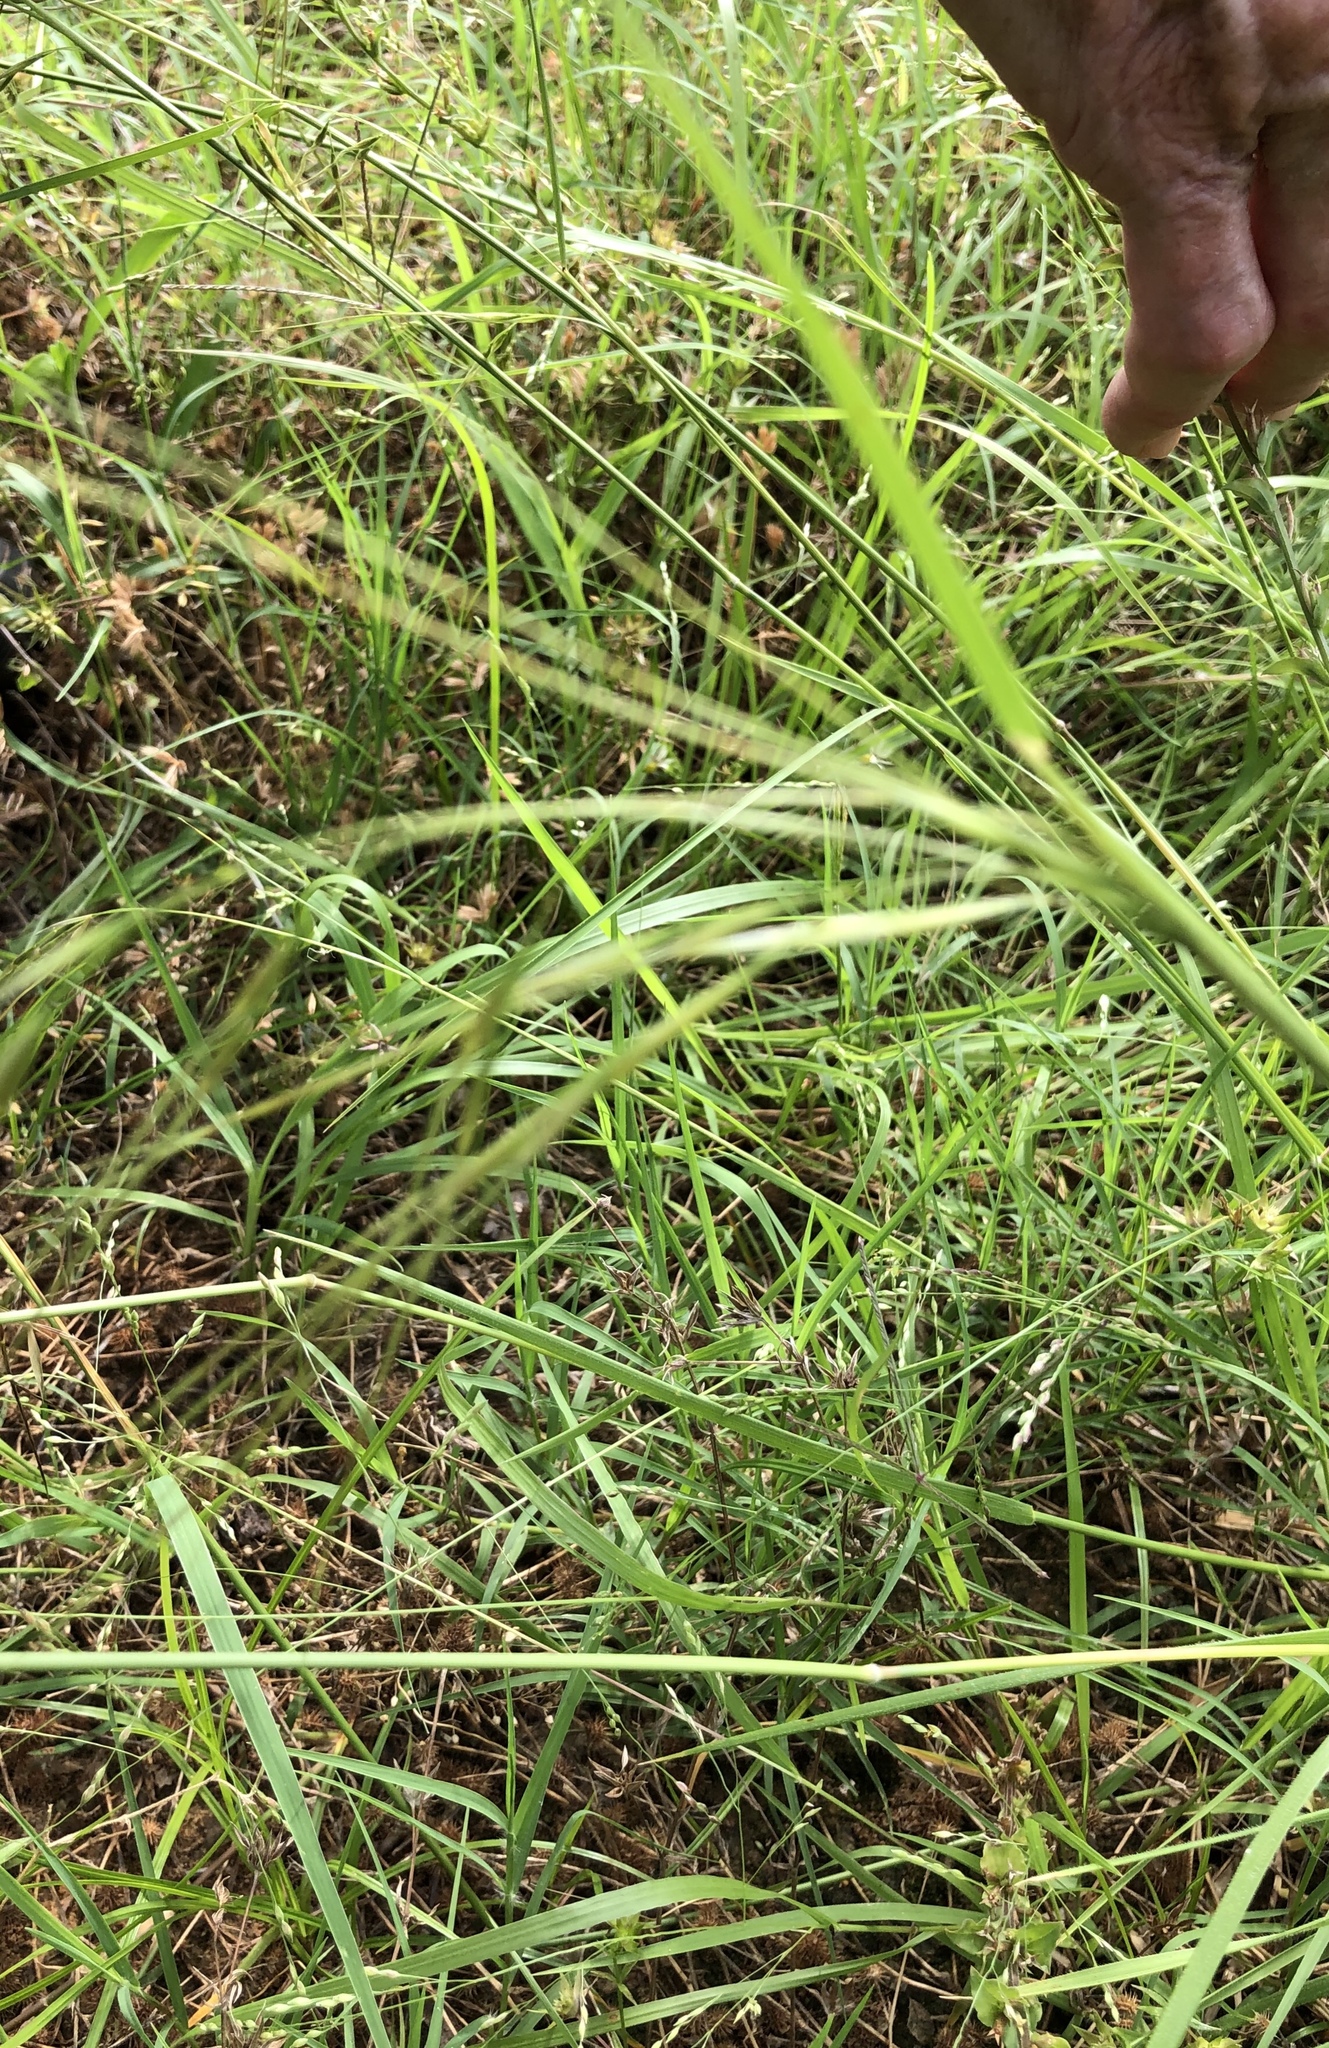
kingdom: Plantae
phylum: Tracheophyta
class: Liliopsida
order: Poales
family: Poaceae
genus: Nassella
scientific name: Nassella leucotricha
